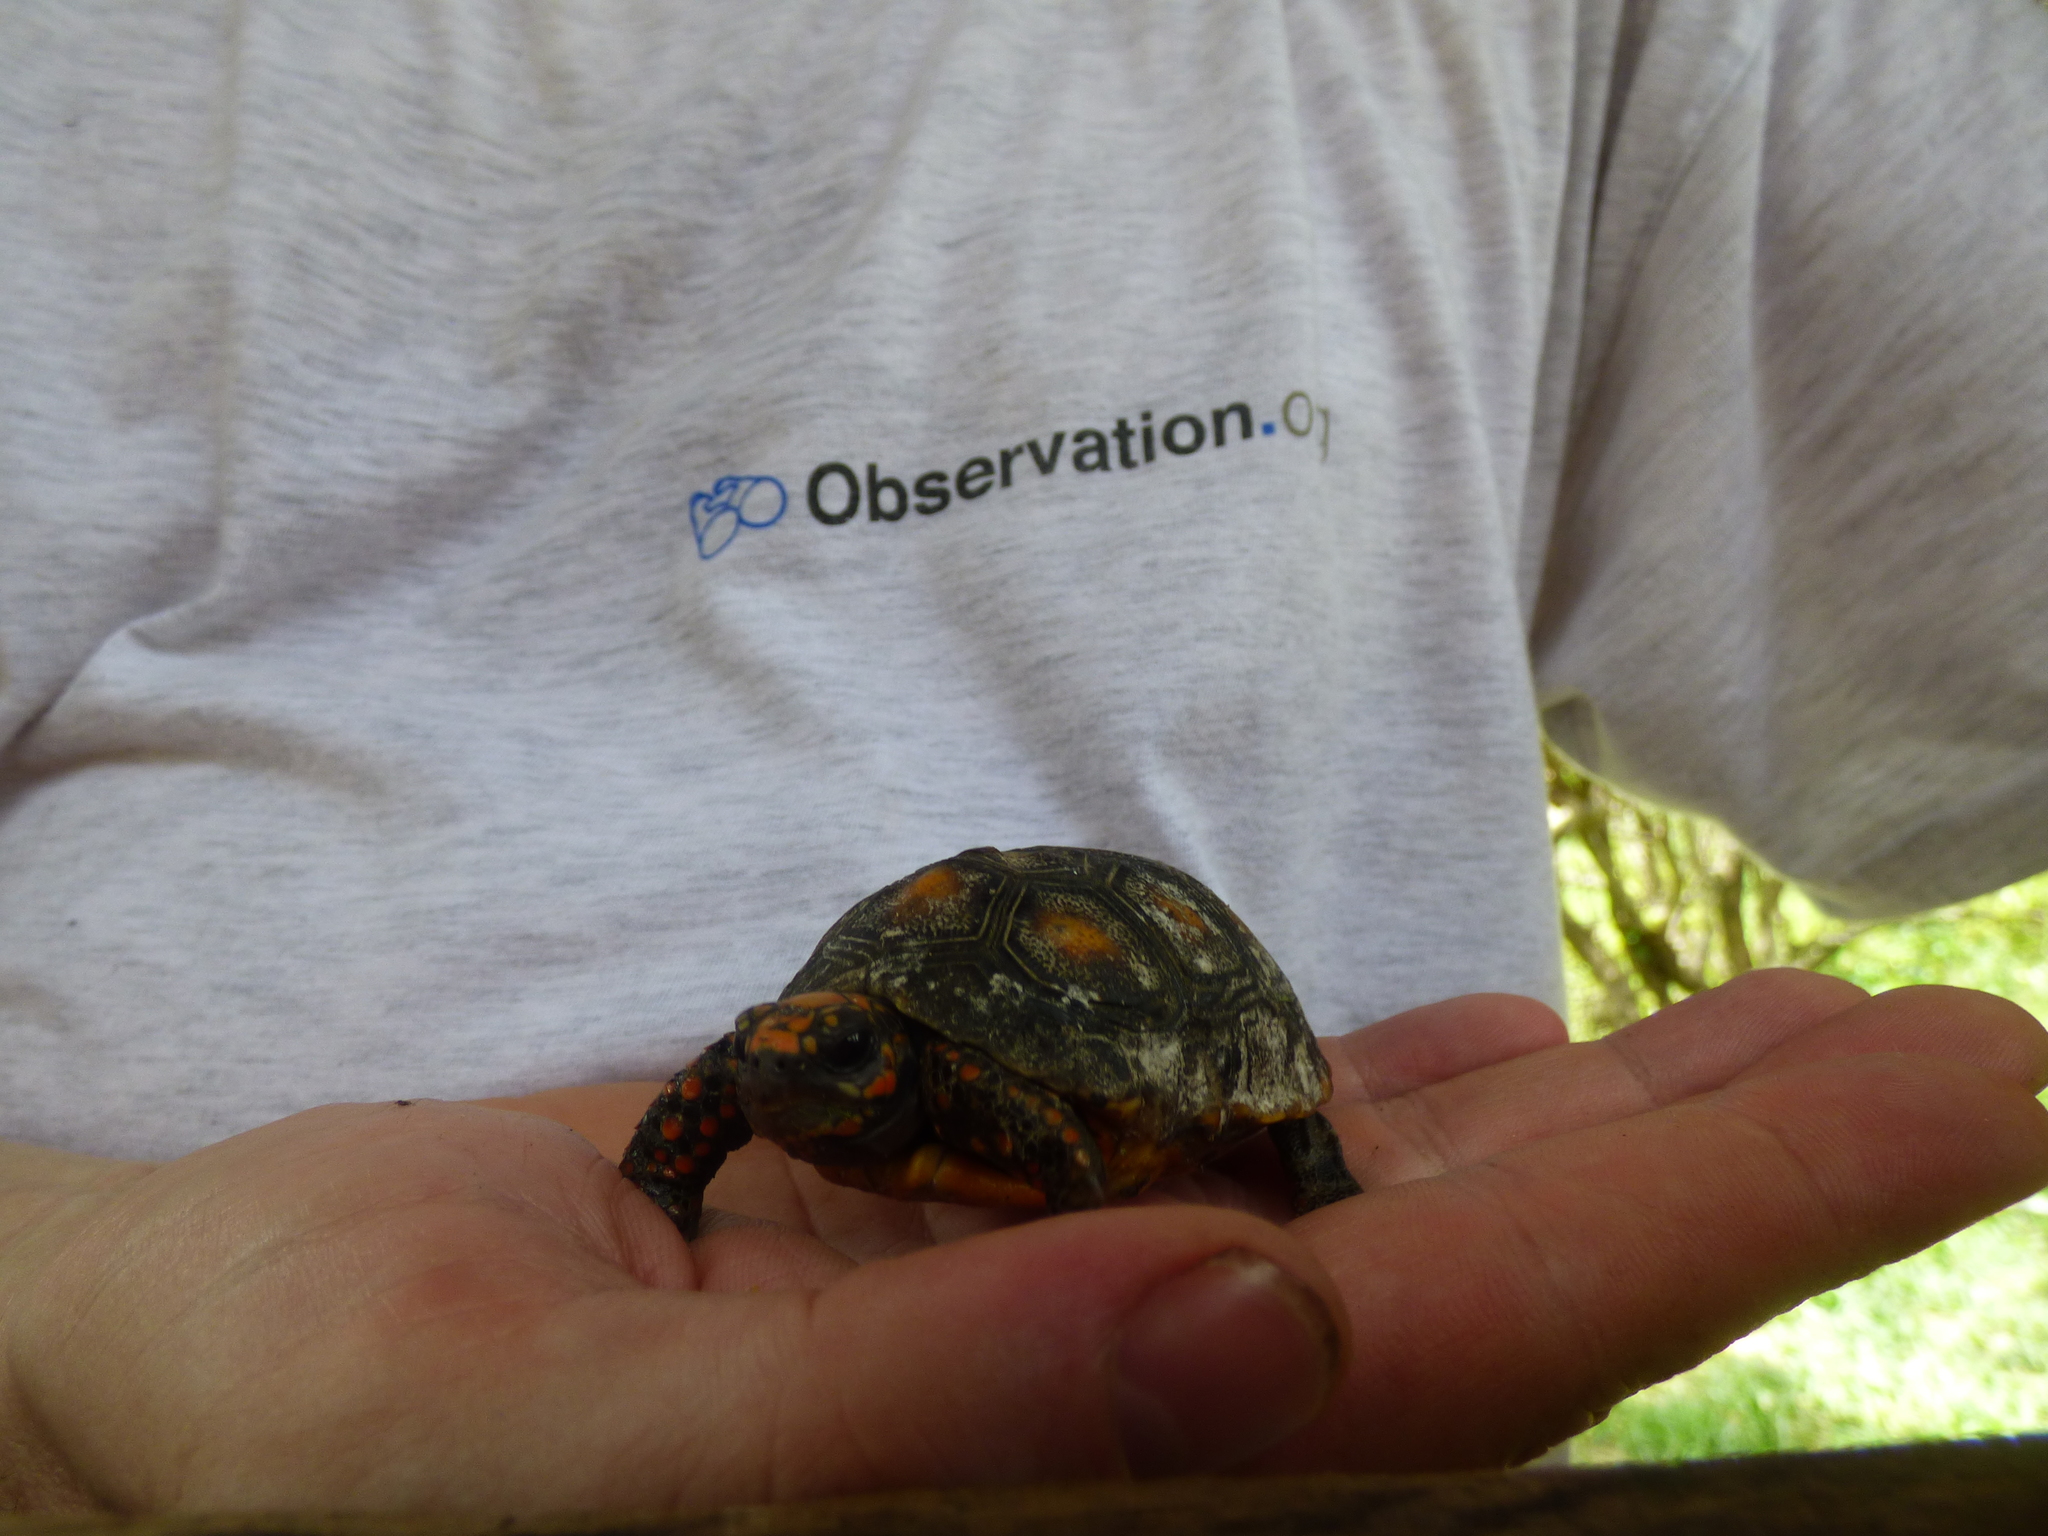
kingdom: Animalia
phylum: Chordata
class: Testudines
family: Testudinidae
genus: Chelonoidis
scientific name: Chelonoidis carbonarius
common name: Red-footed tortoise
